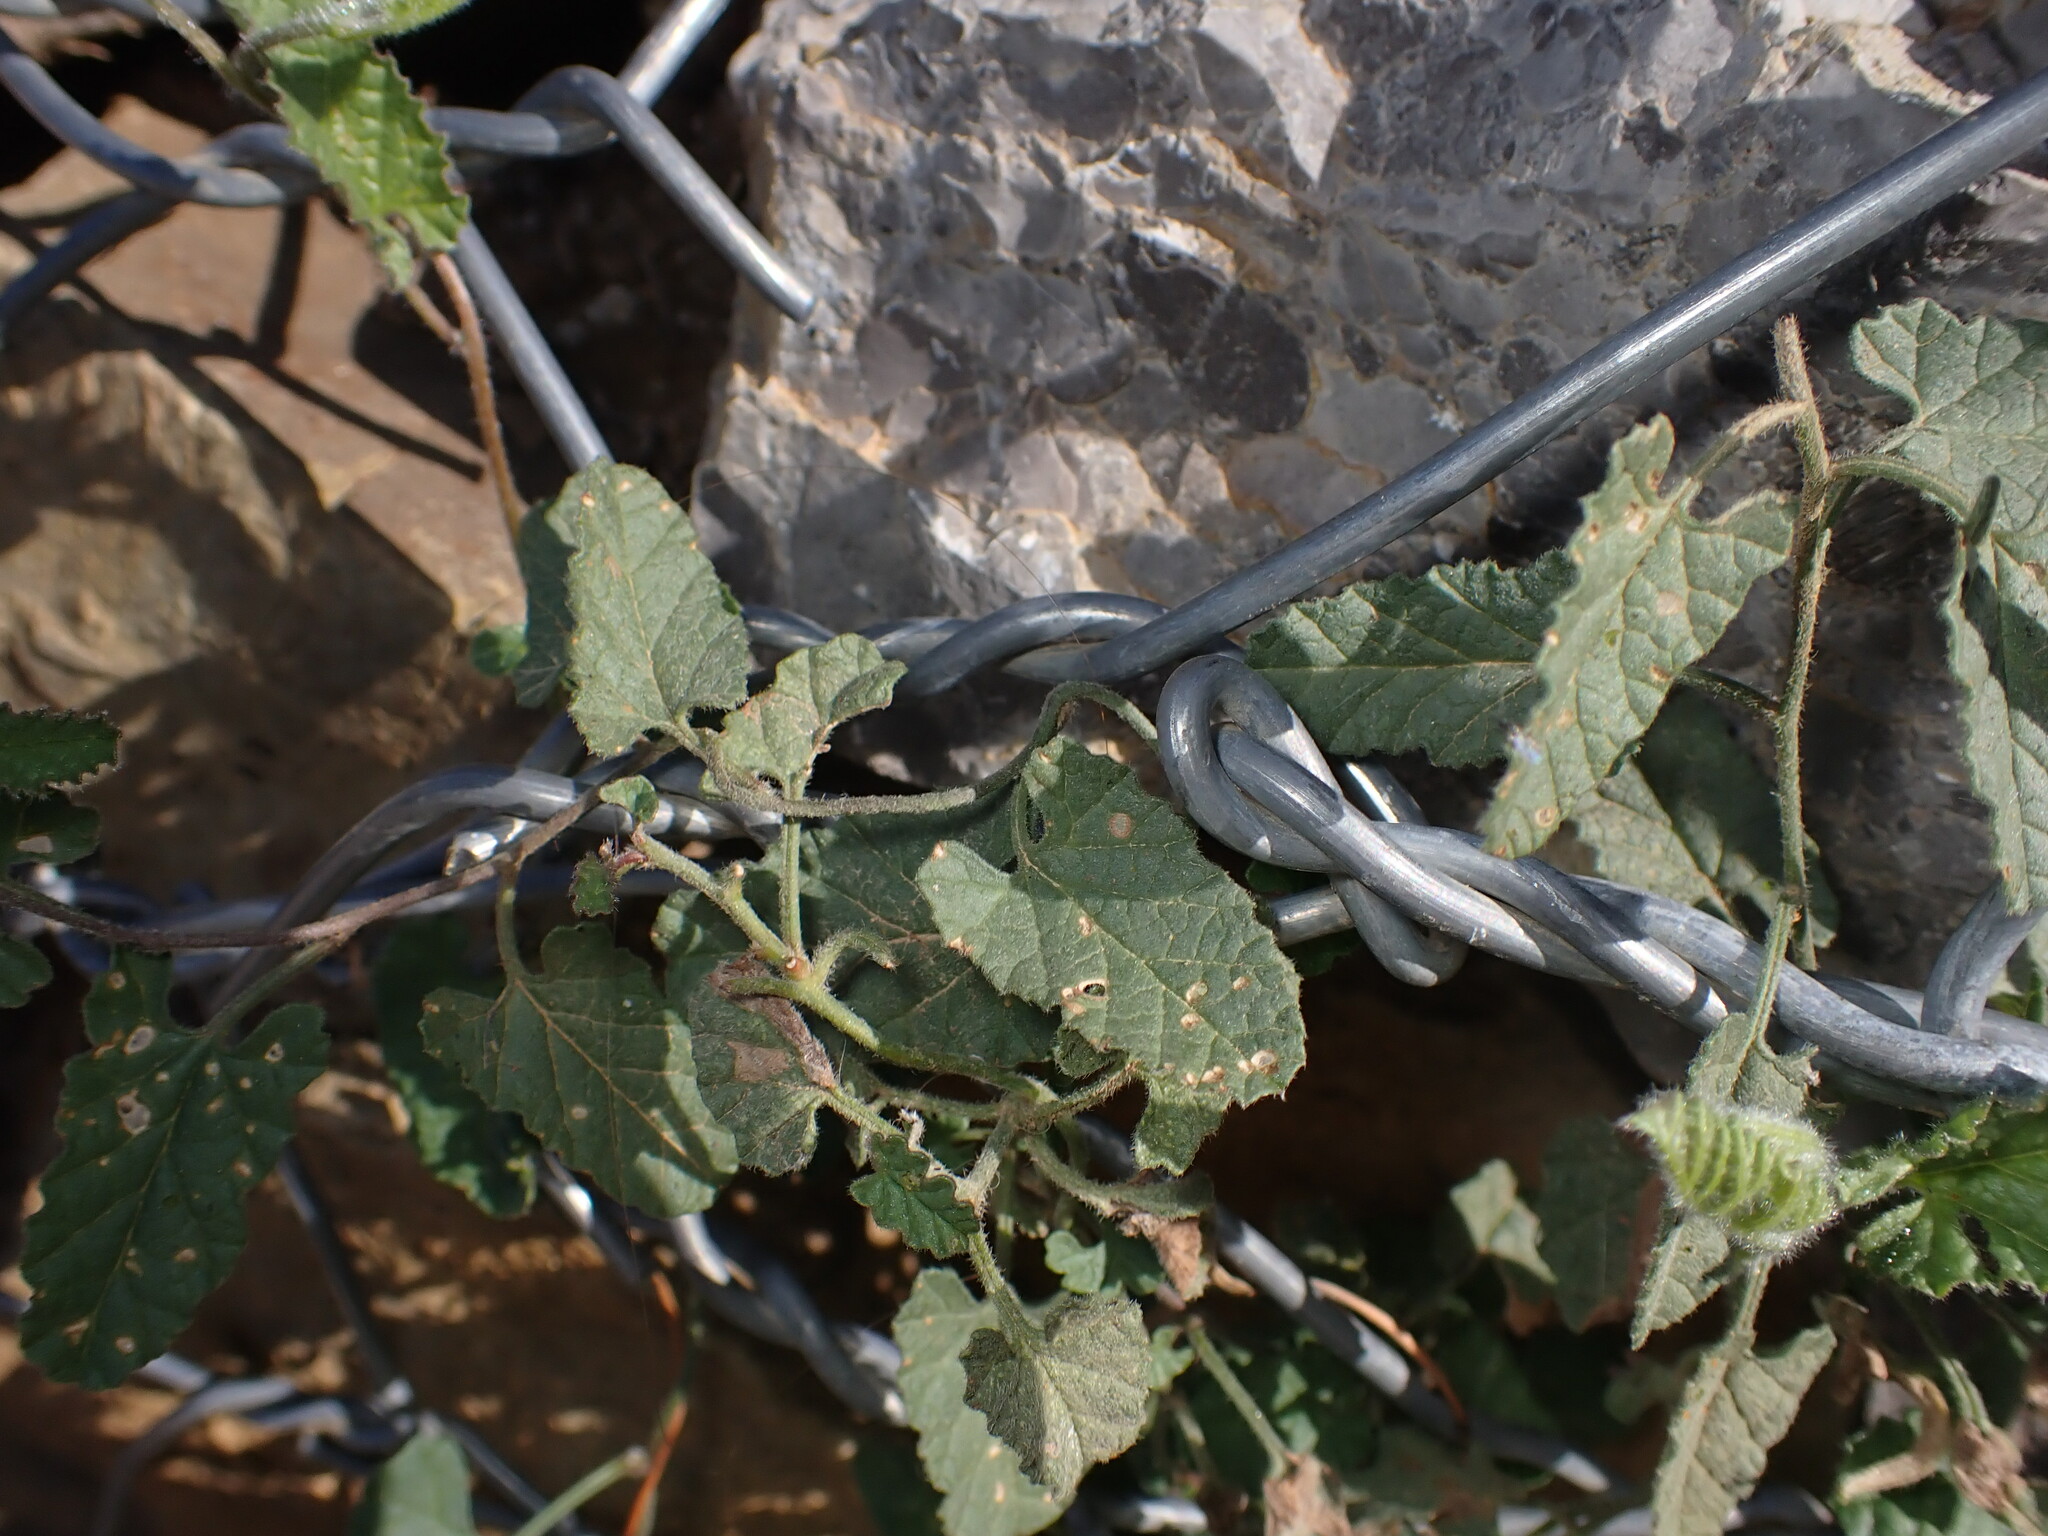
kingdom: Plantae
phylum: Tracheophyta
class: Magnoliopsida
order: Solanales
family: Convolvulaceae
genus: Convolvulus
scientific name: Convolvulus althaeoides
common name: Mallow bindweed
